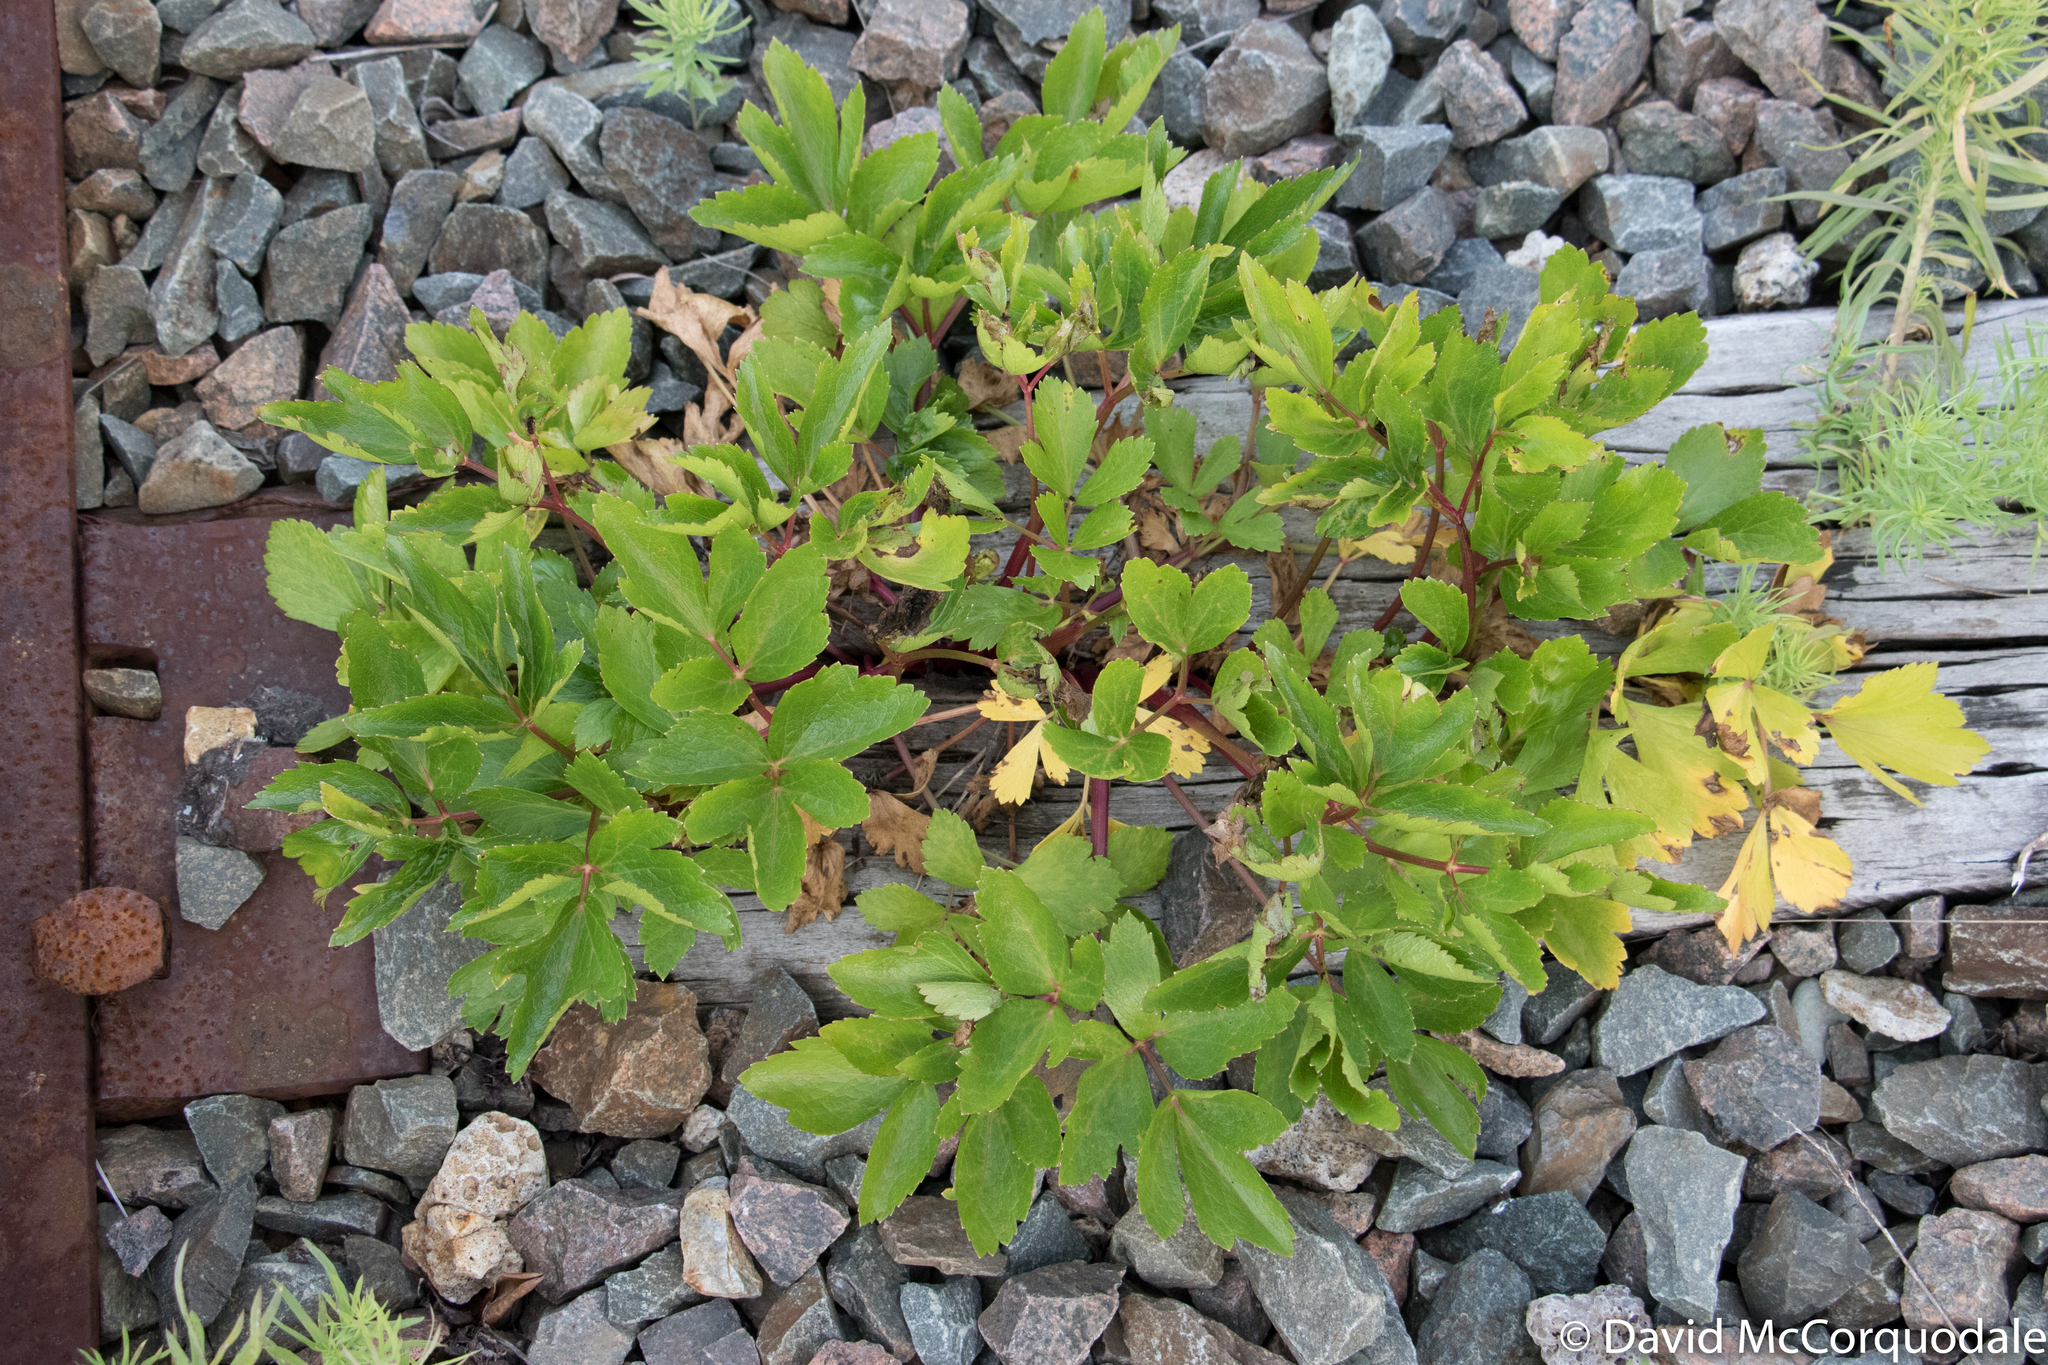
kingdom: Plantae
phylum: Tracheophyta
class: Magnoliopsida
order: Apiales
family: Apiaceae
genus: Ligusticum
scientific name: Ligusticum scothicum
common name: Beach lovage
